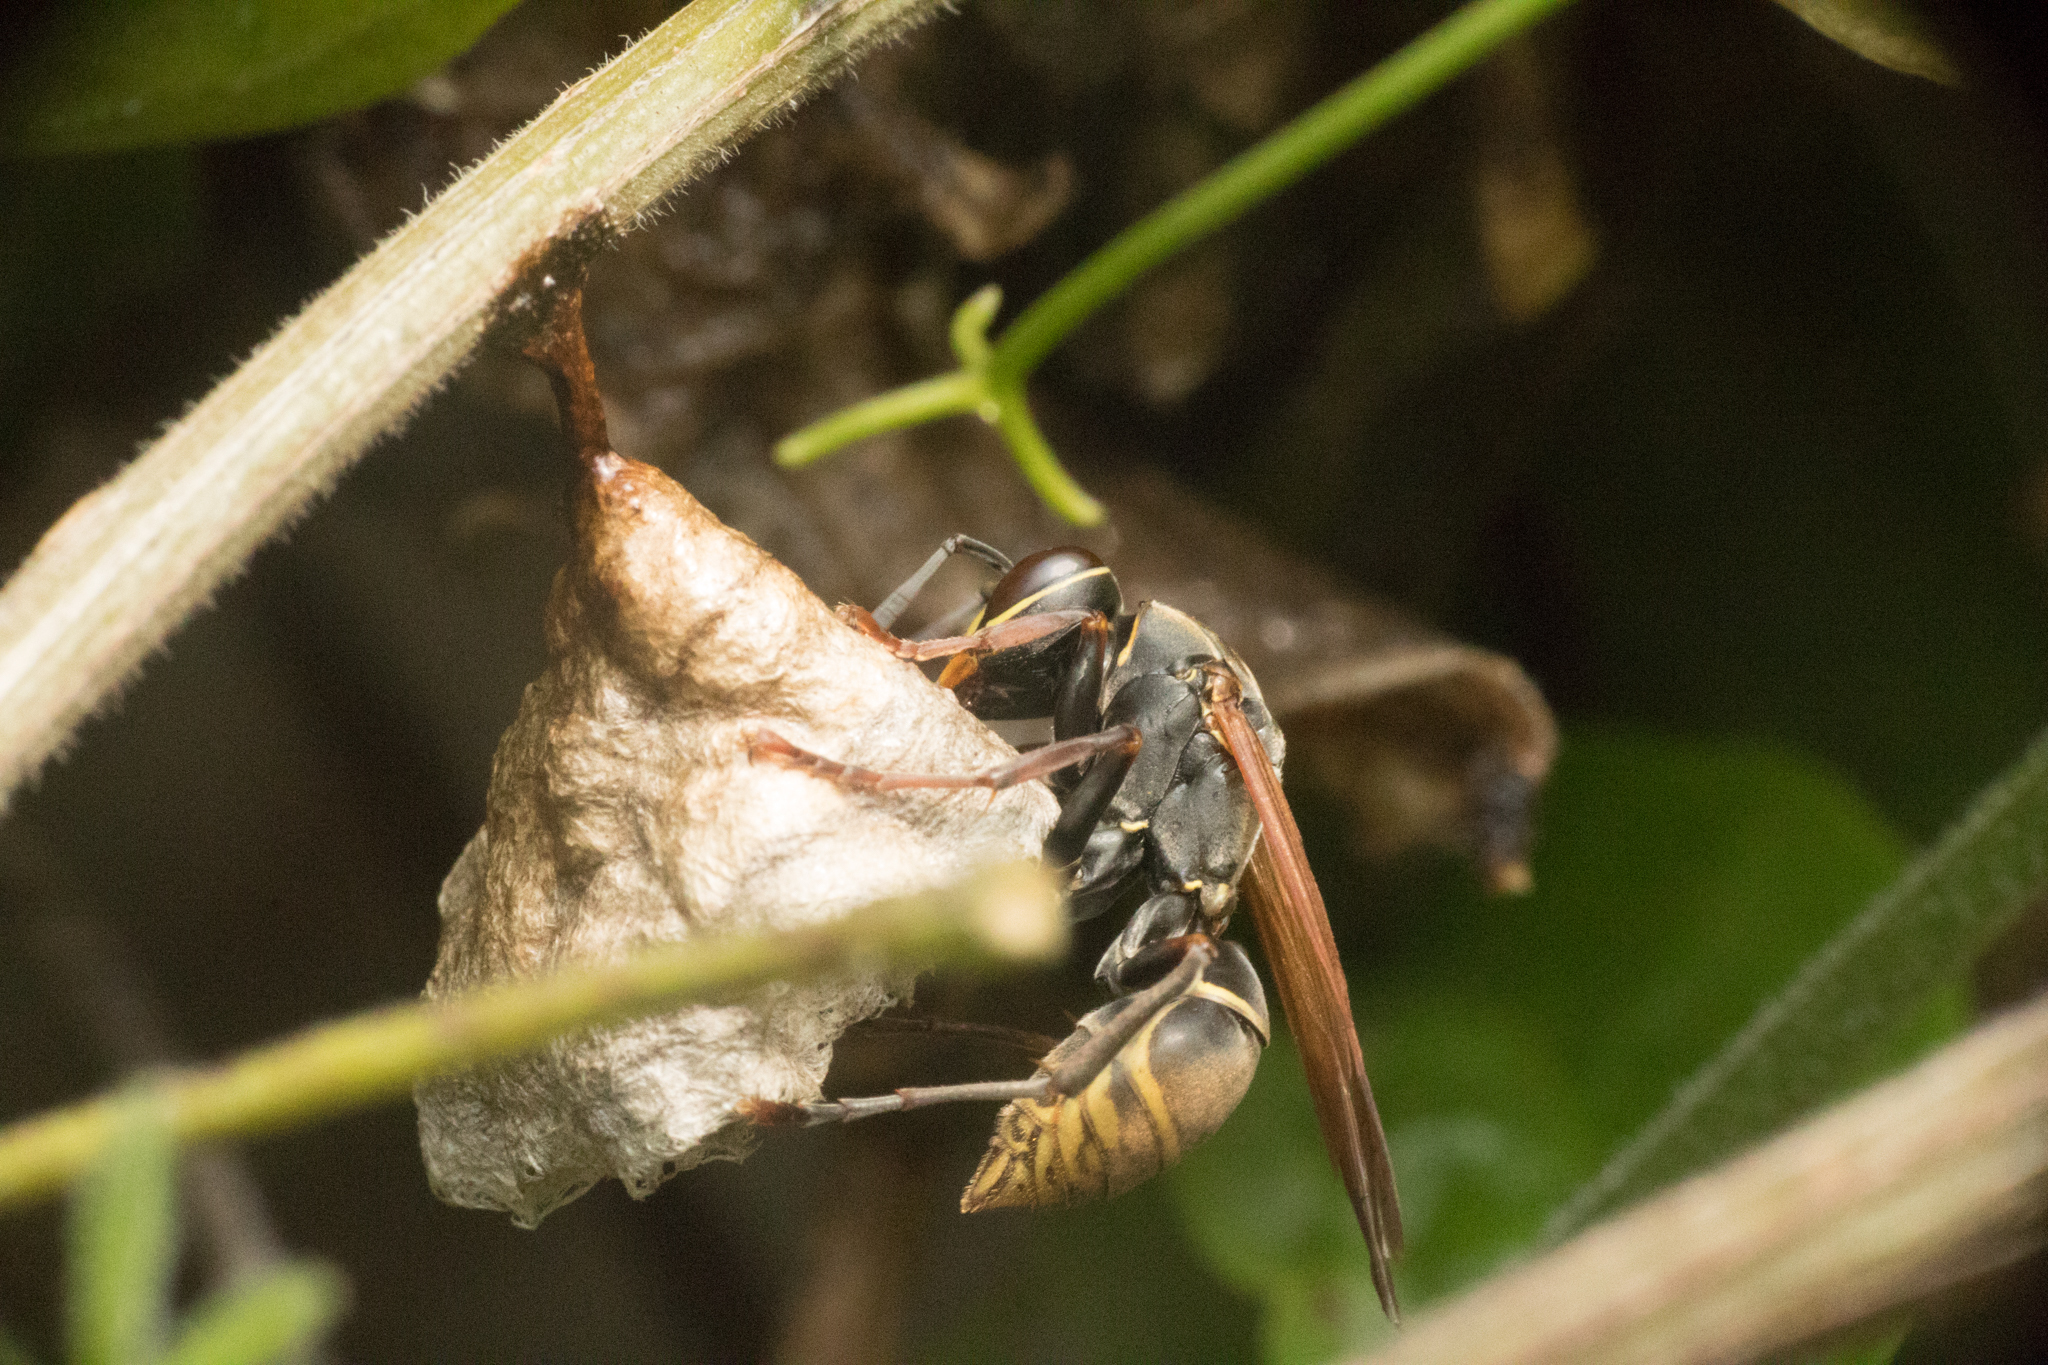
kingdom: Animalia
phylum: Arthropoda
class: Insecta
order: Hymenoptera
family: Eumenidae
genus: Polistes
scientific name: Polistes cinerascens
